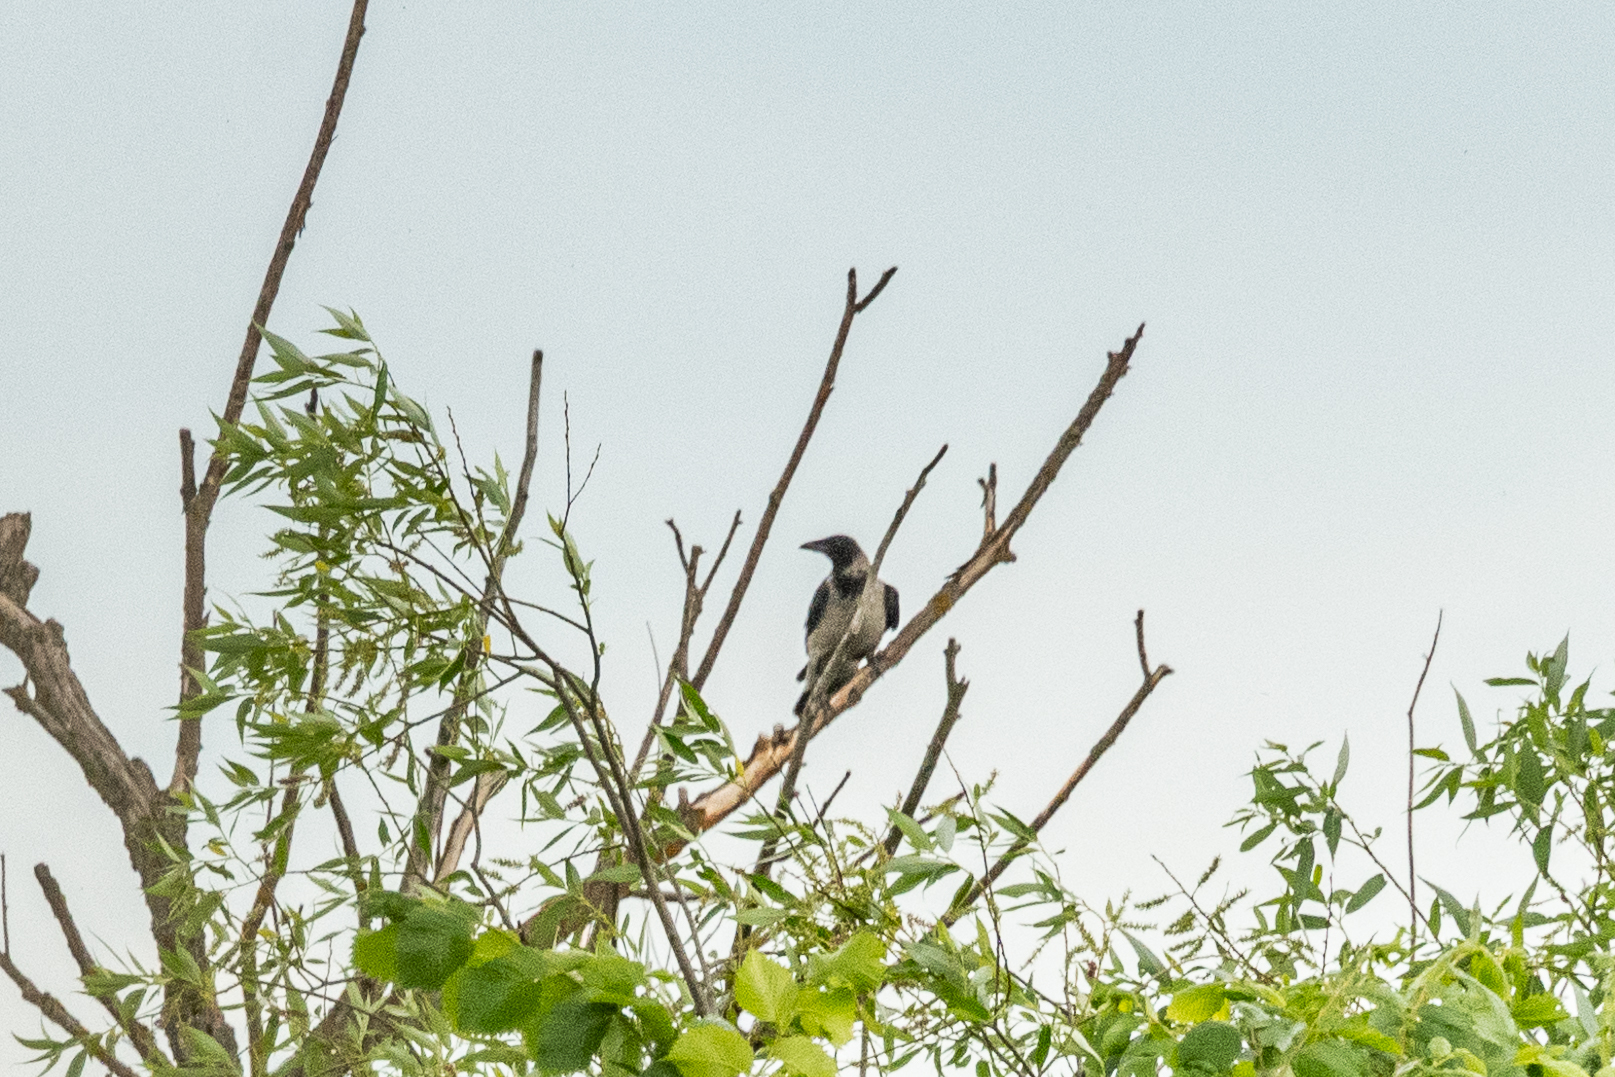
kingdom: Animalia
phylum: Chordata
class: Aves
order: Passeriformes
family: Corvidae
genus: Corvus
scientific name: Corvus cornix
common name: Hooded crow
